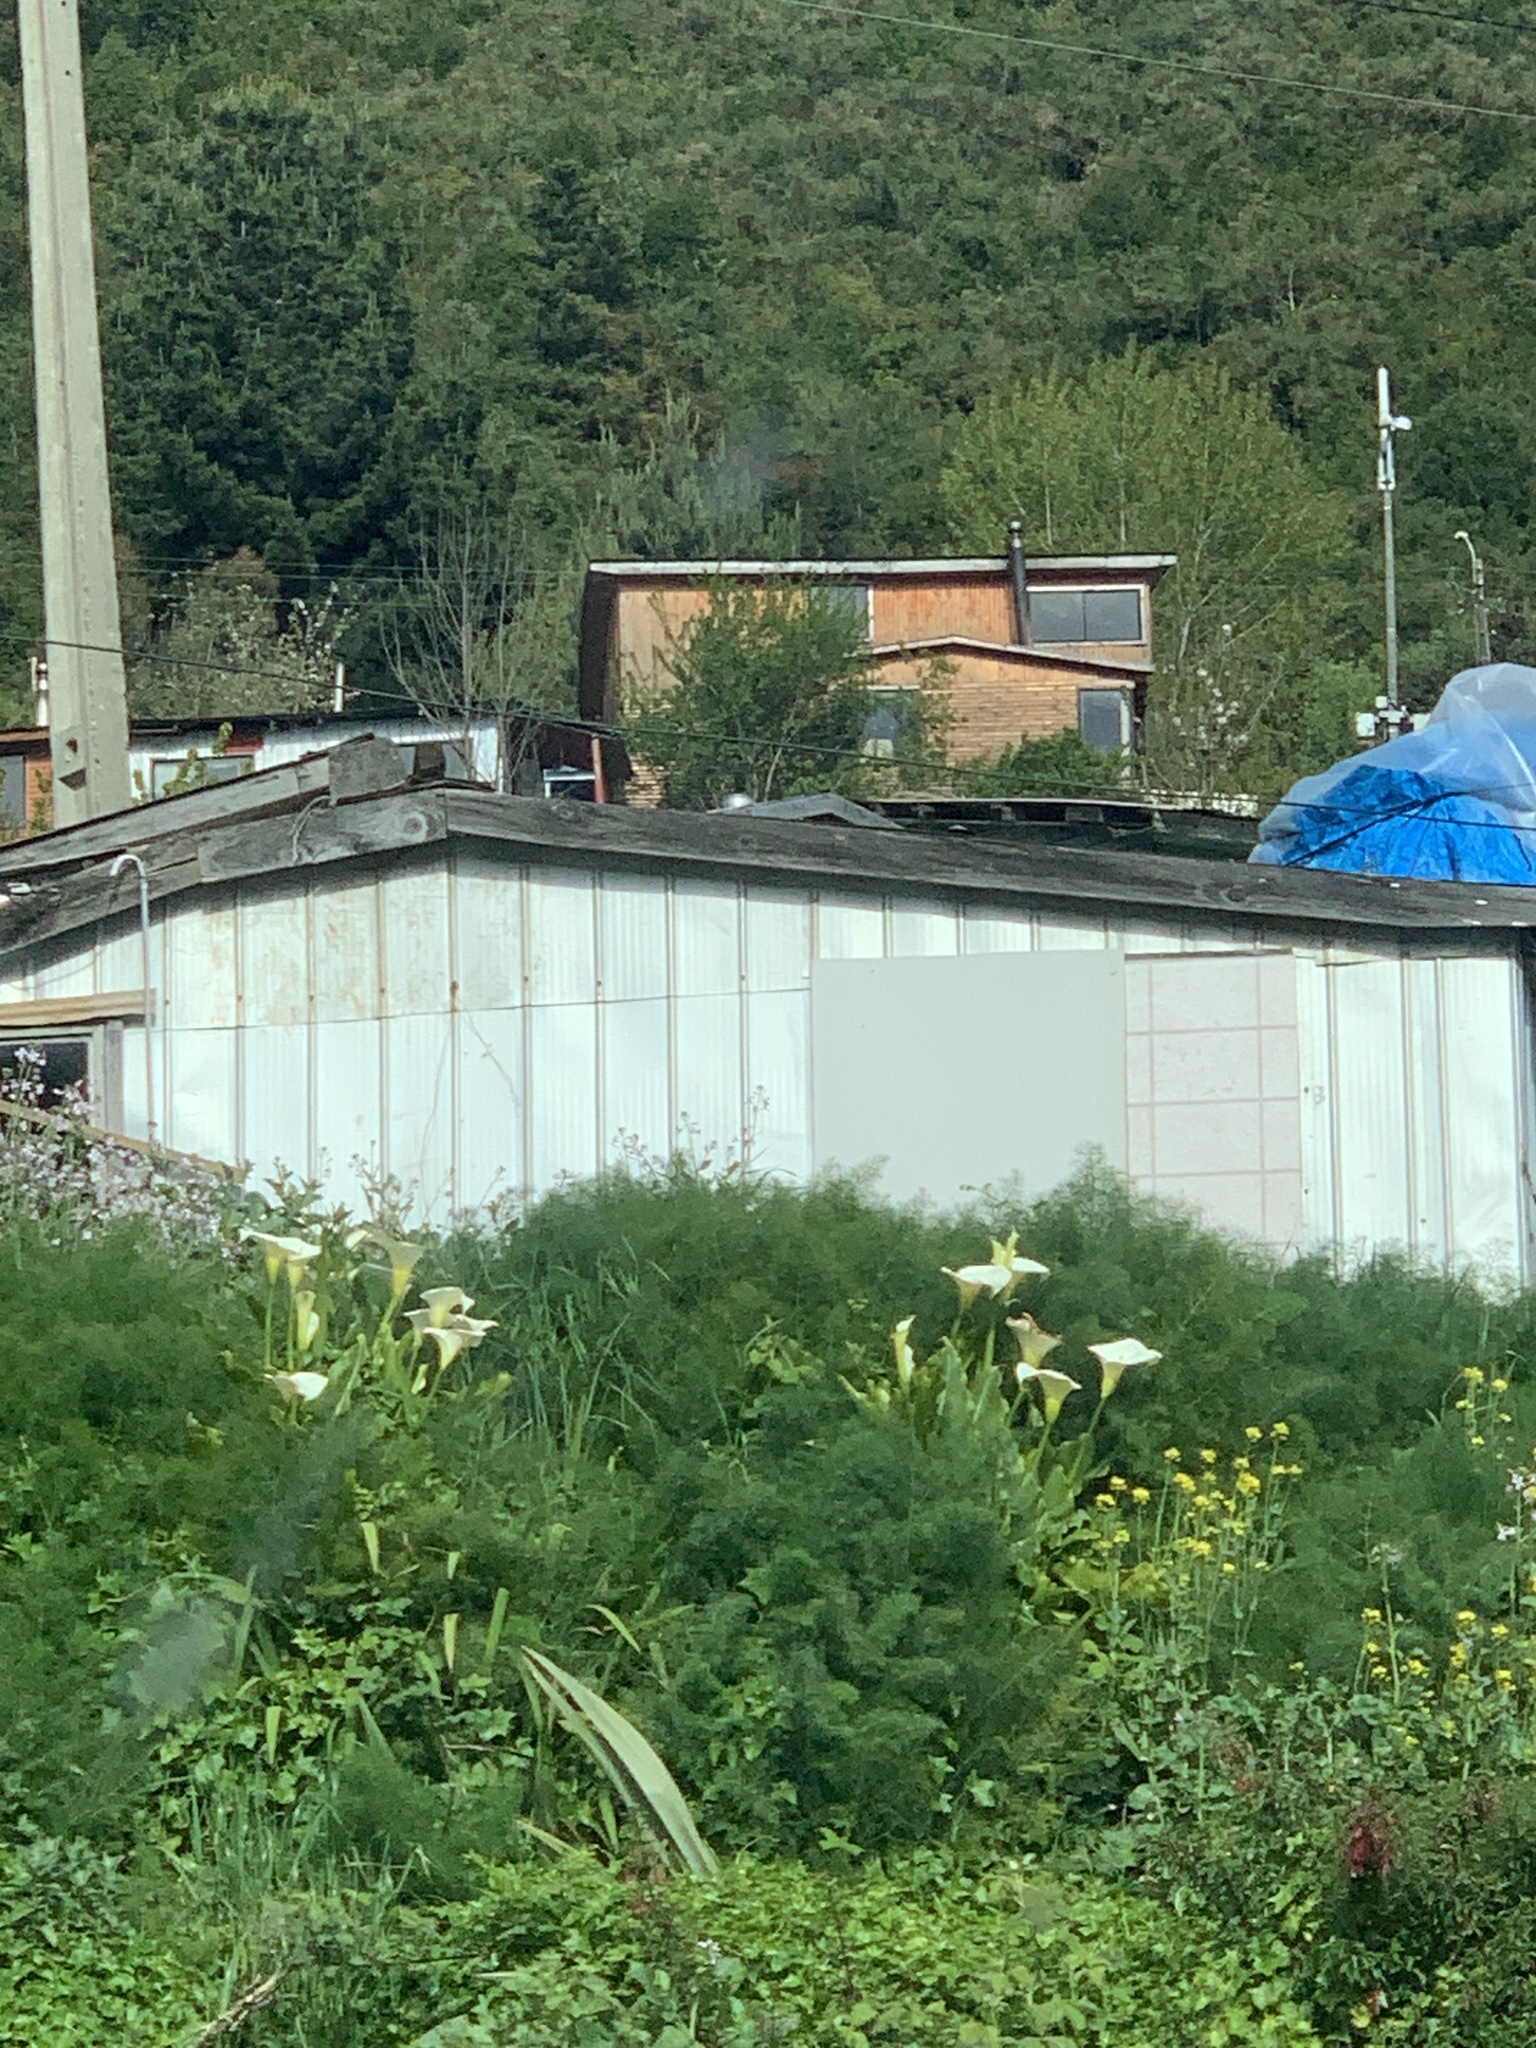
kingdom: Plantae
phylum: Tracheophyta
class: Liliopsida
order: Alismatales
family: Araceae
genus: Zantedeschia
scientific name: Zantedeschia aethiopica
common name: Altar-lily
